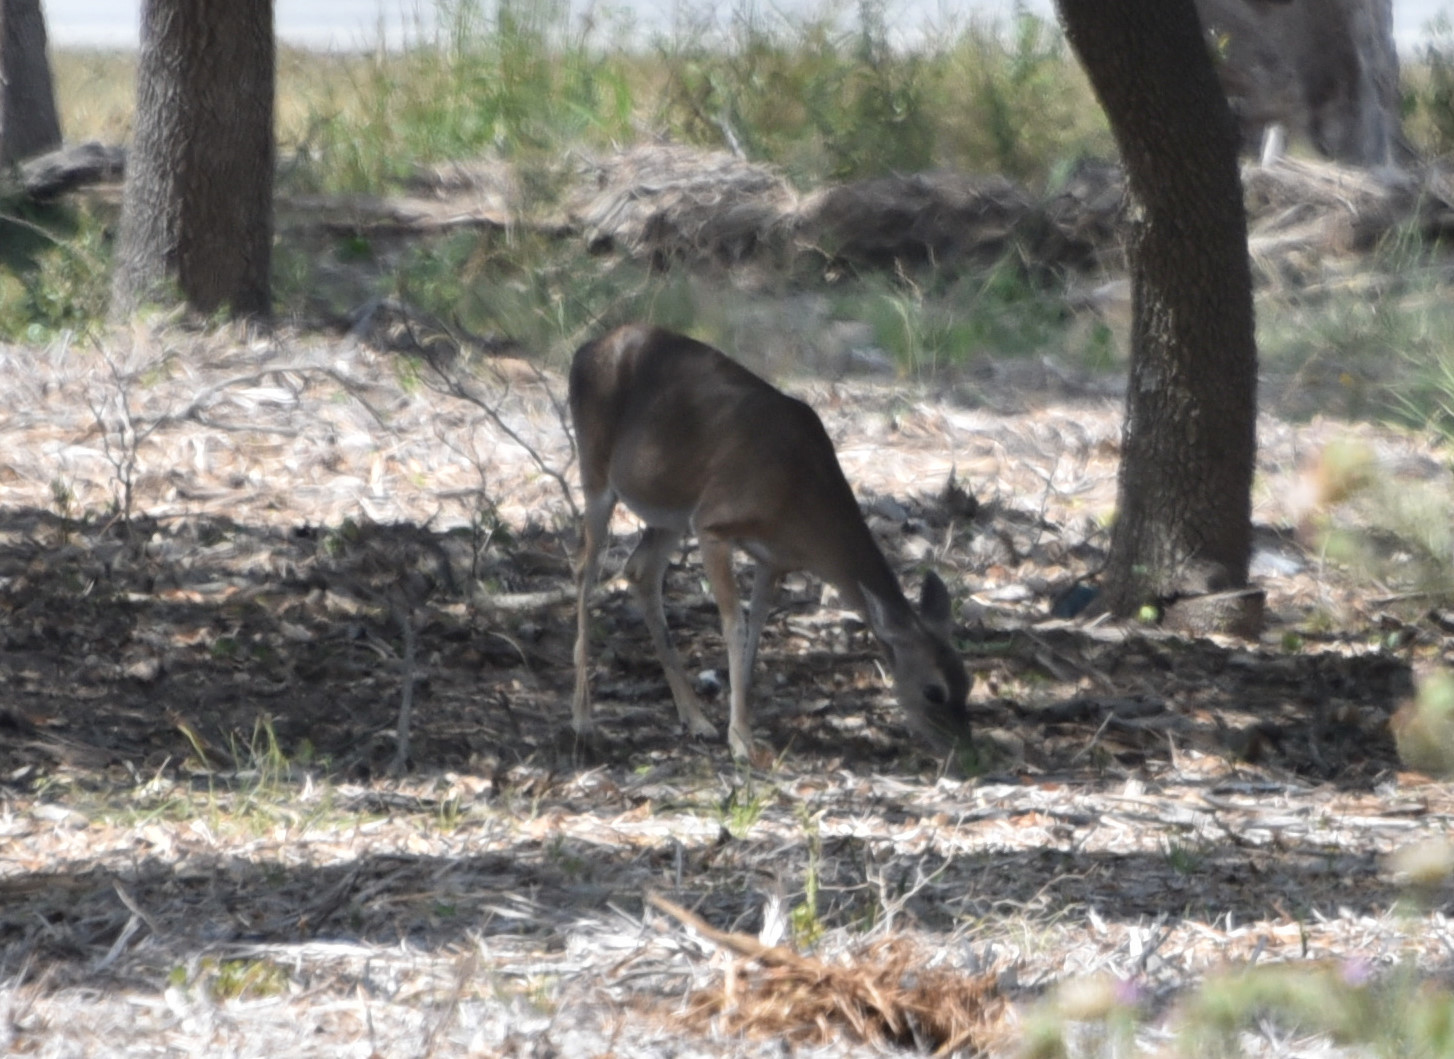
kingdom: Animalia
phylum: Chordata
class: Mammalia
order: Artiodactyla
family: Cervidae
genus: Odocoileus
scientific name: Odocoileus virginianus
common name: White-tailed deer
